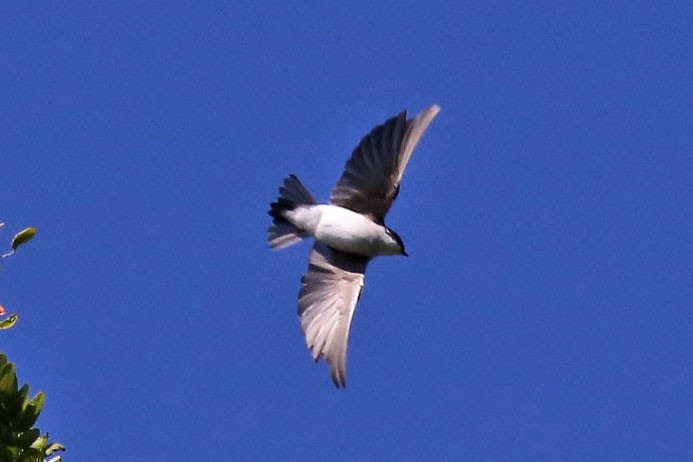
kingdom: Animalia
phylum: Chordata
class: Aves
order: Passeriformes
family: Hirundinidae
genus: Tachycineta
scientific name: Tachycineta bicolor
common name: Tree swallow
